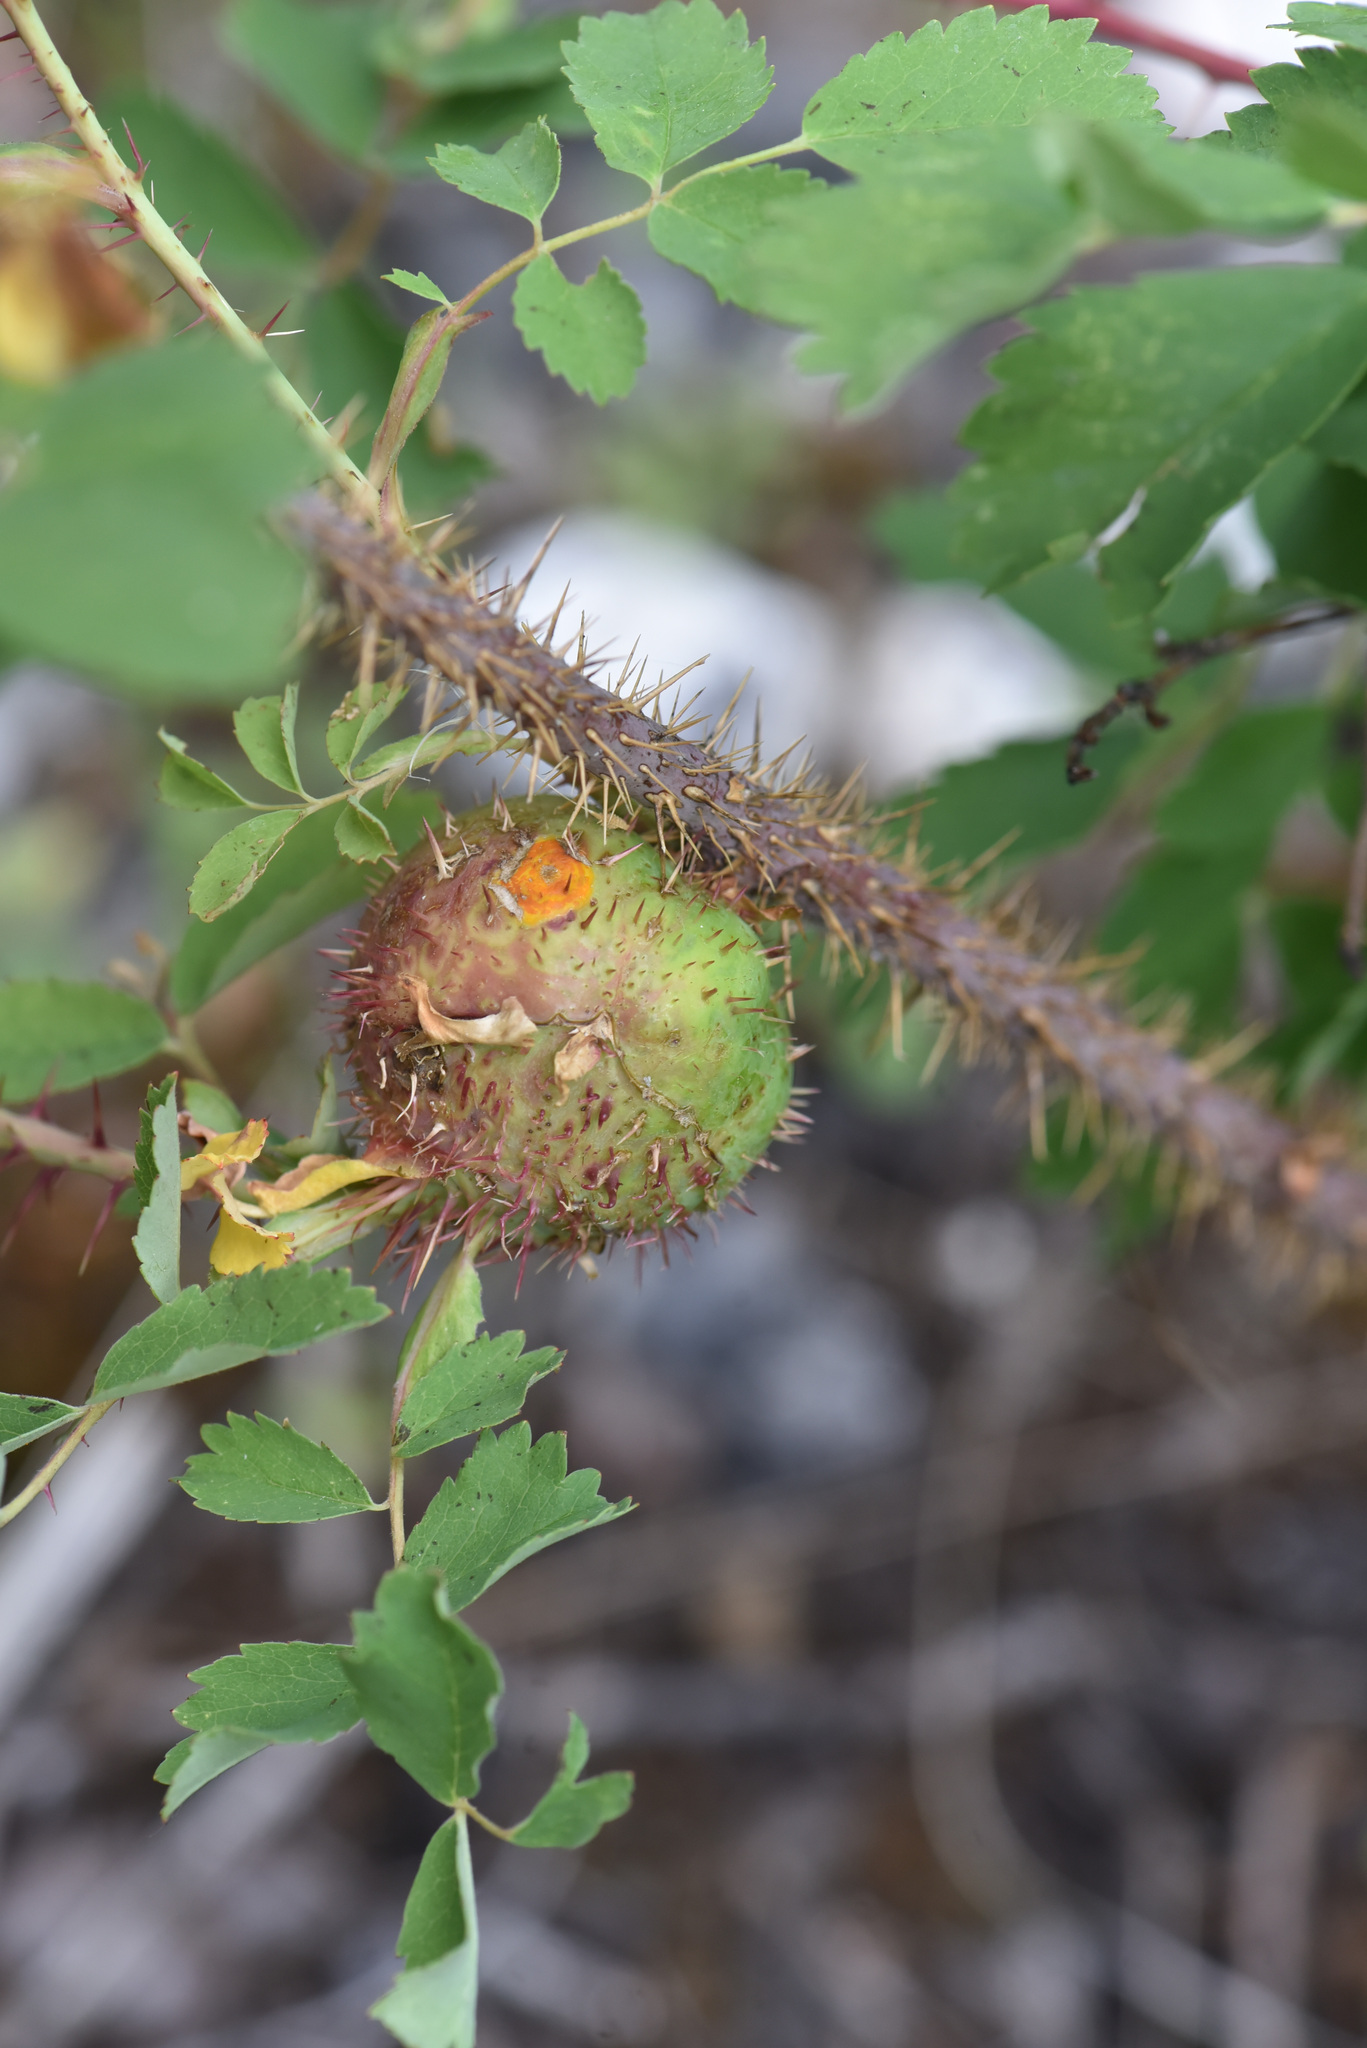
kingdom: Animalia
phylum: Arthropoda
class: Insecta
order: Hymenoptera
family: Cynipidae
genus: Diplolepis
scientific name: Diplolepis spinosa
